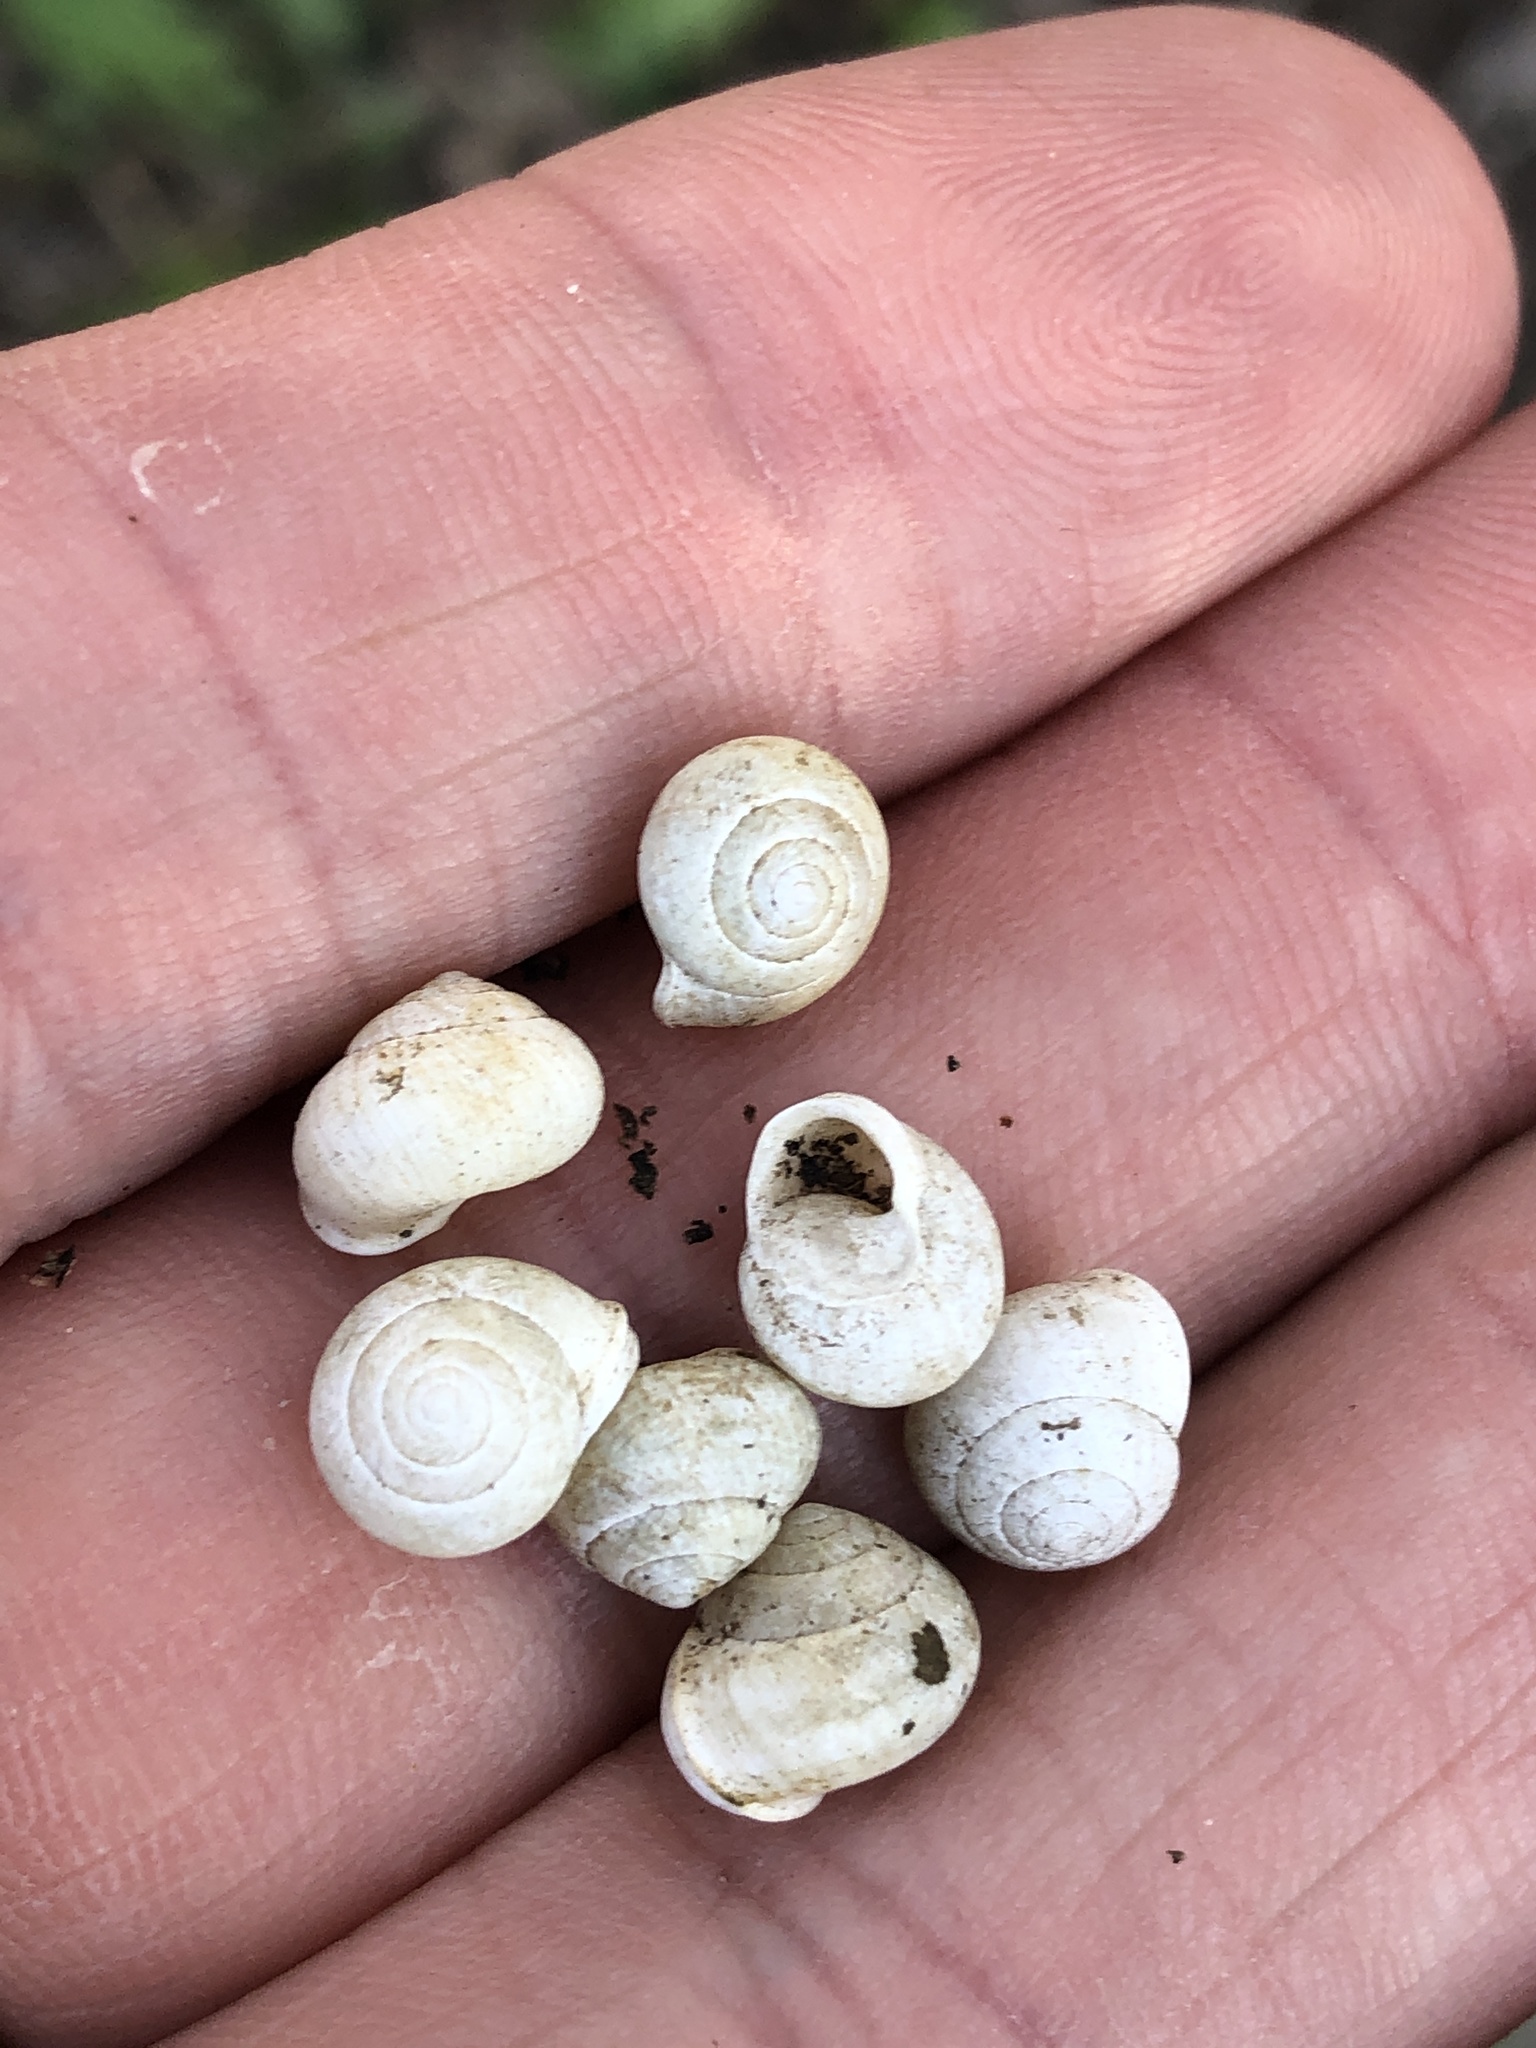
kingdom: Animalia
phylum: Mollusca
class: Gastropoda
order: Cycloneritida
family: Helicinidae
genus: Helicina
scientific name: Helicina orbiculata
